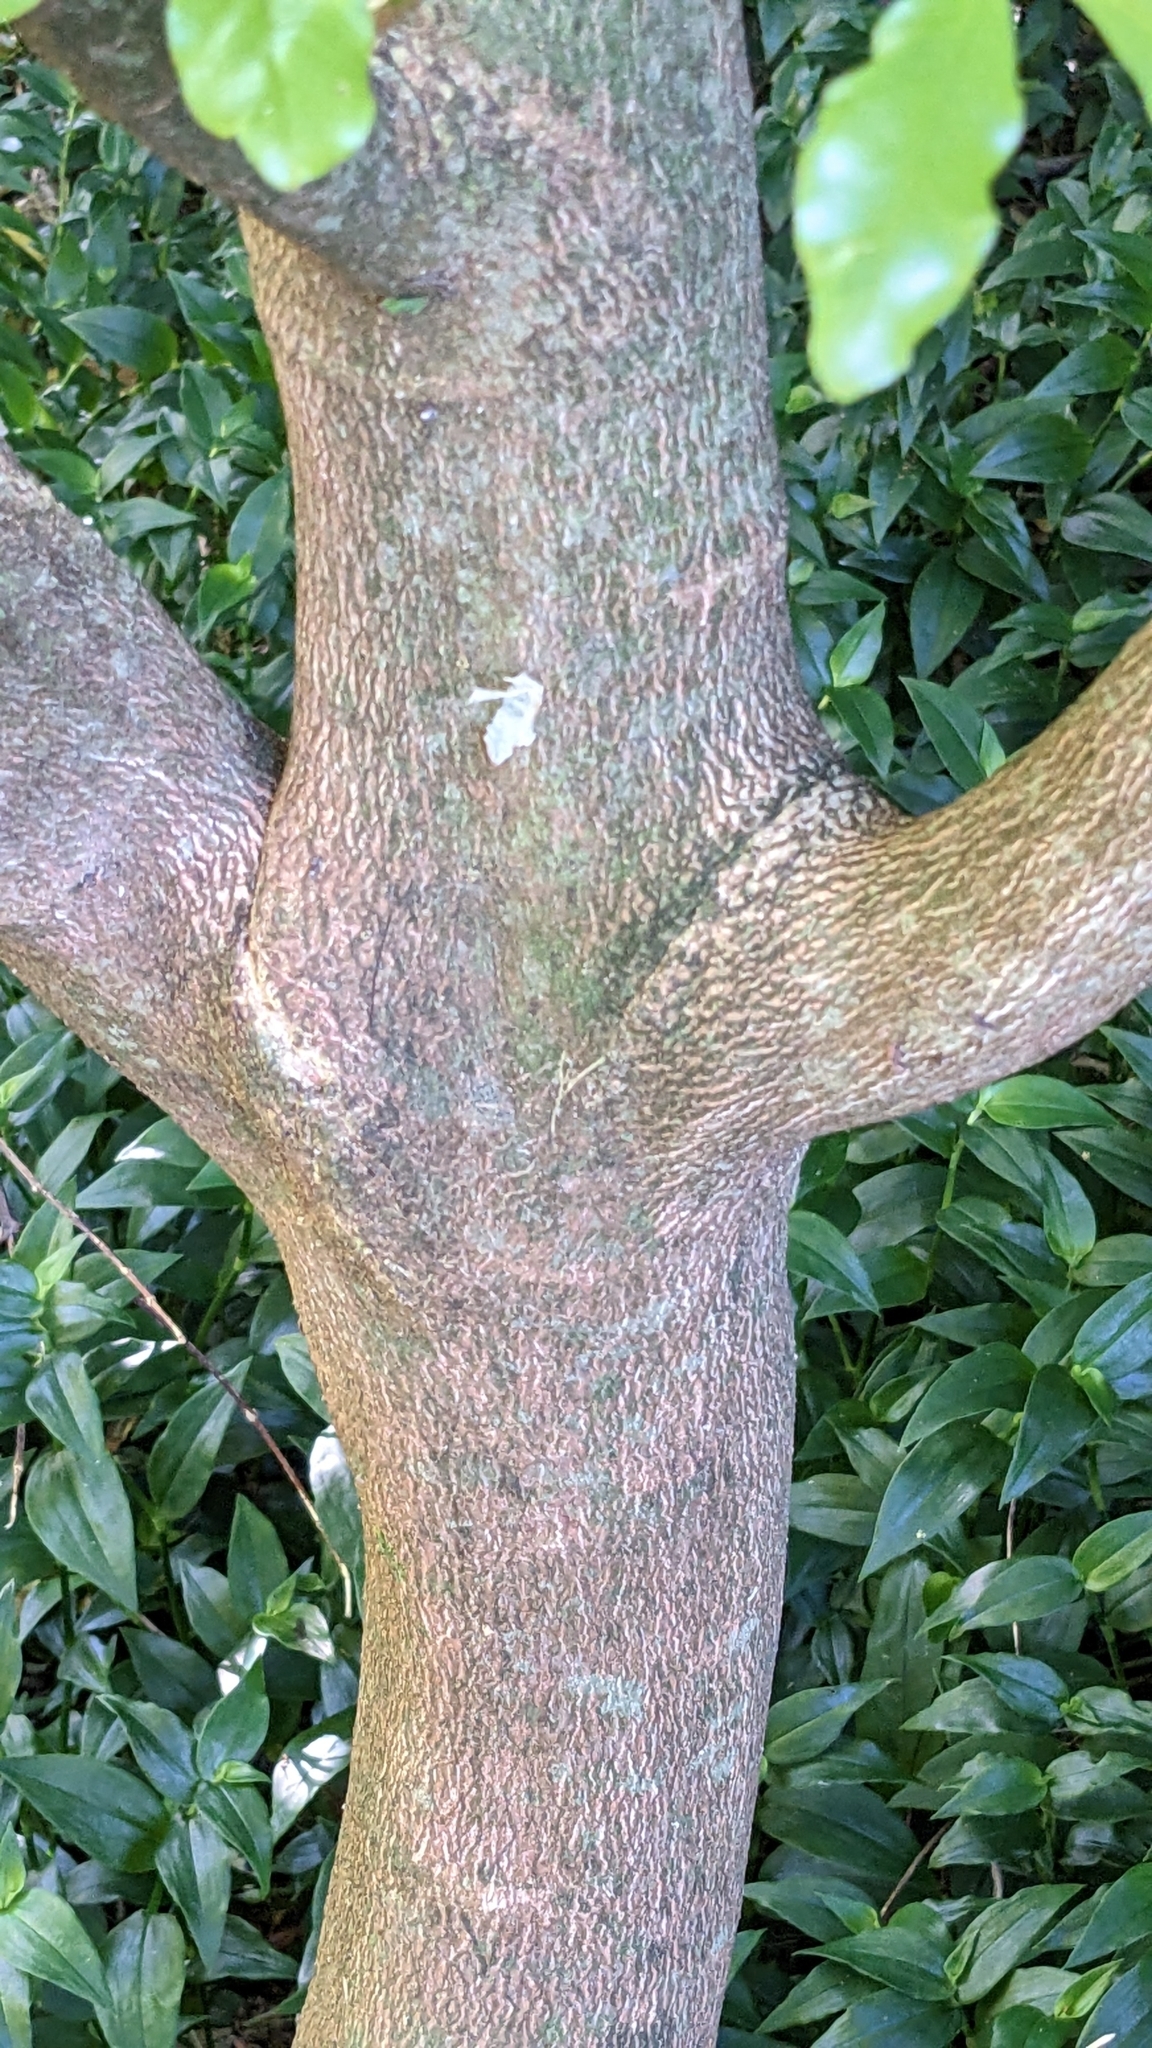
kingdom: Plantae
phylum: Tracheophyta
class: Magnoliopsida
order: Sapindales
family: Rutaceae
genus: Melicope
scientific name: Melicope ternata
